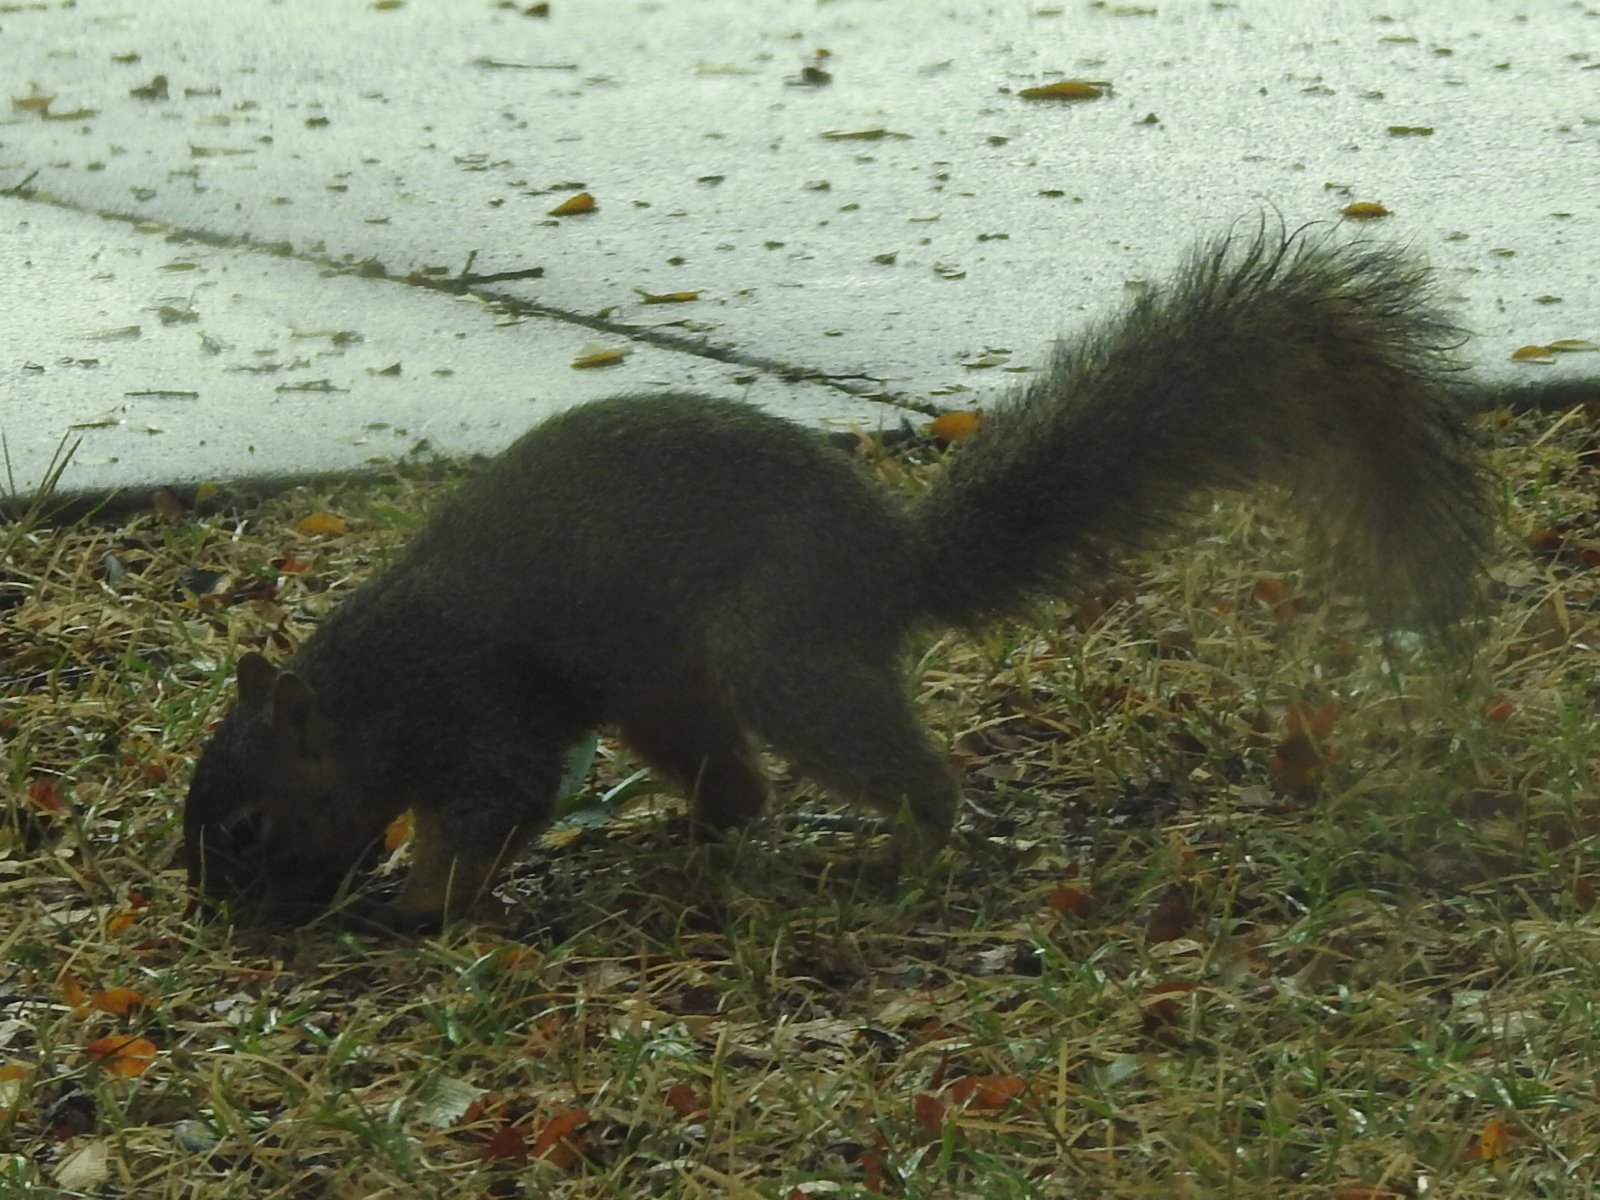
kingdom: Animalia
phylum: Chordata
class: Mammalia
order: Rodentia
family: Sciuridae
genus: Sciurus
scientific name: Sciurus niger
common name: Fox squirrel
